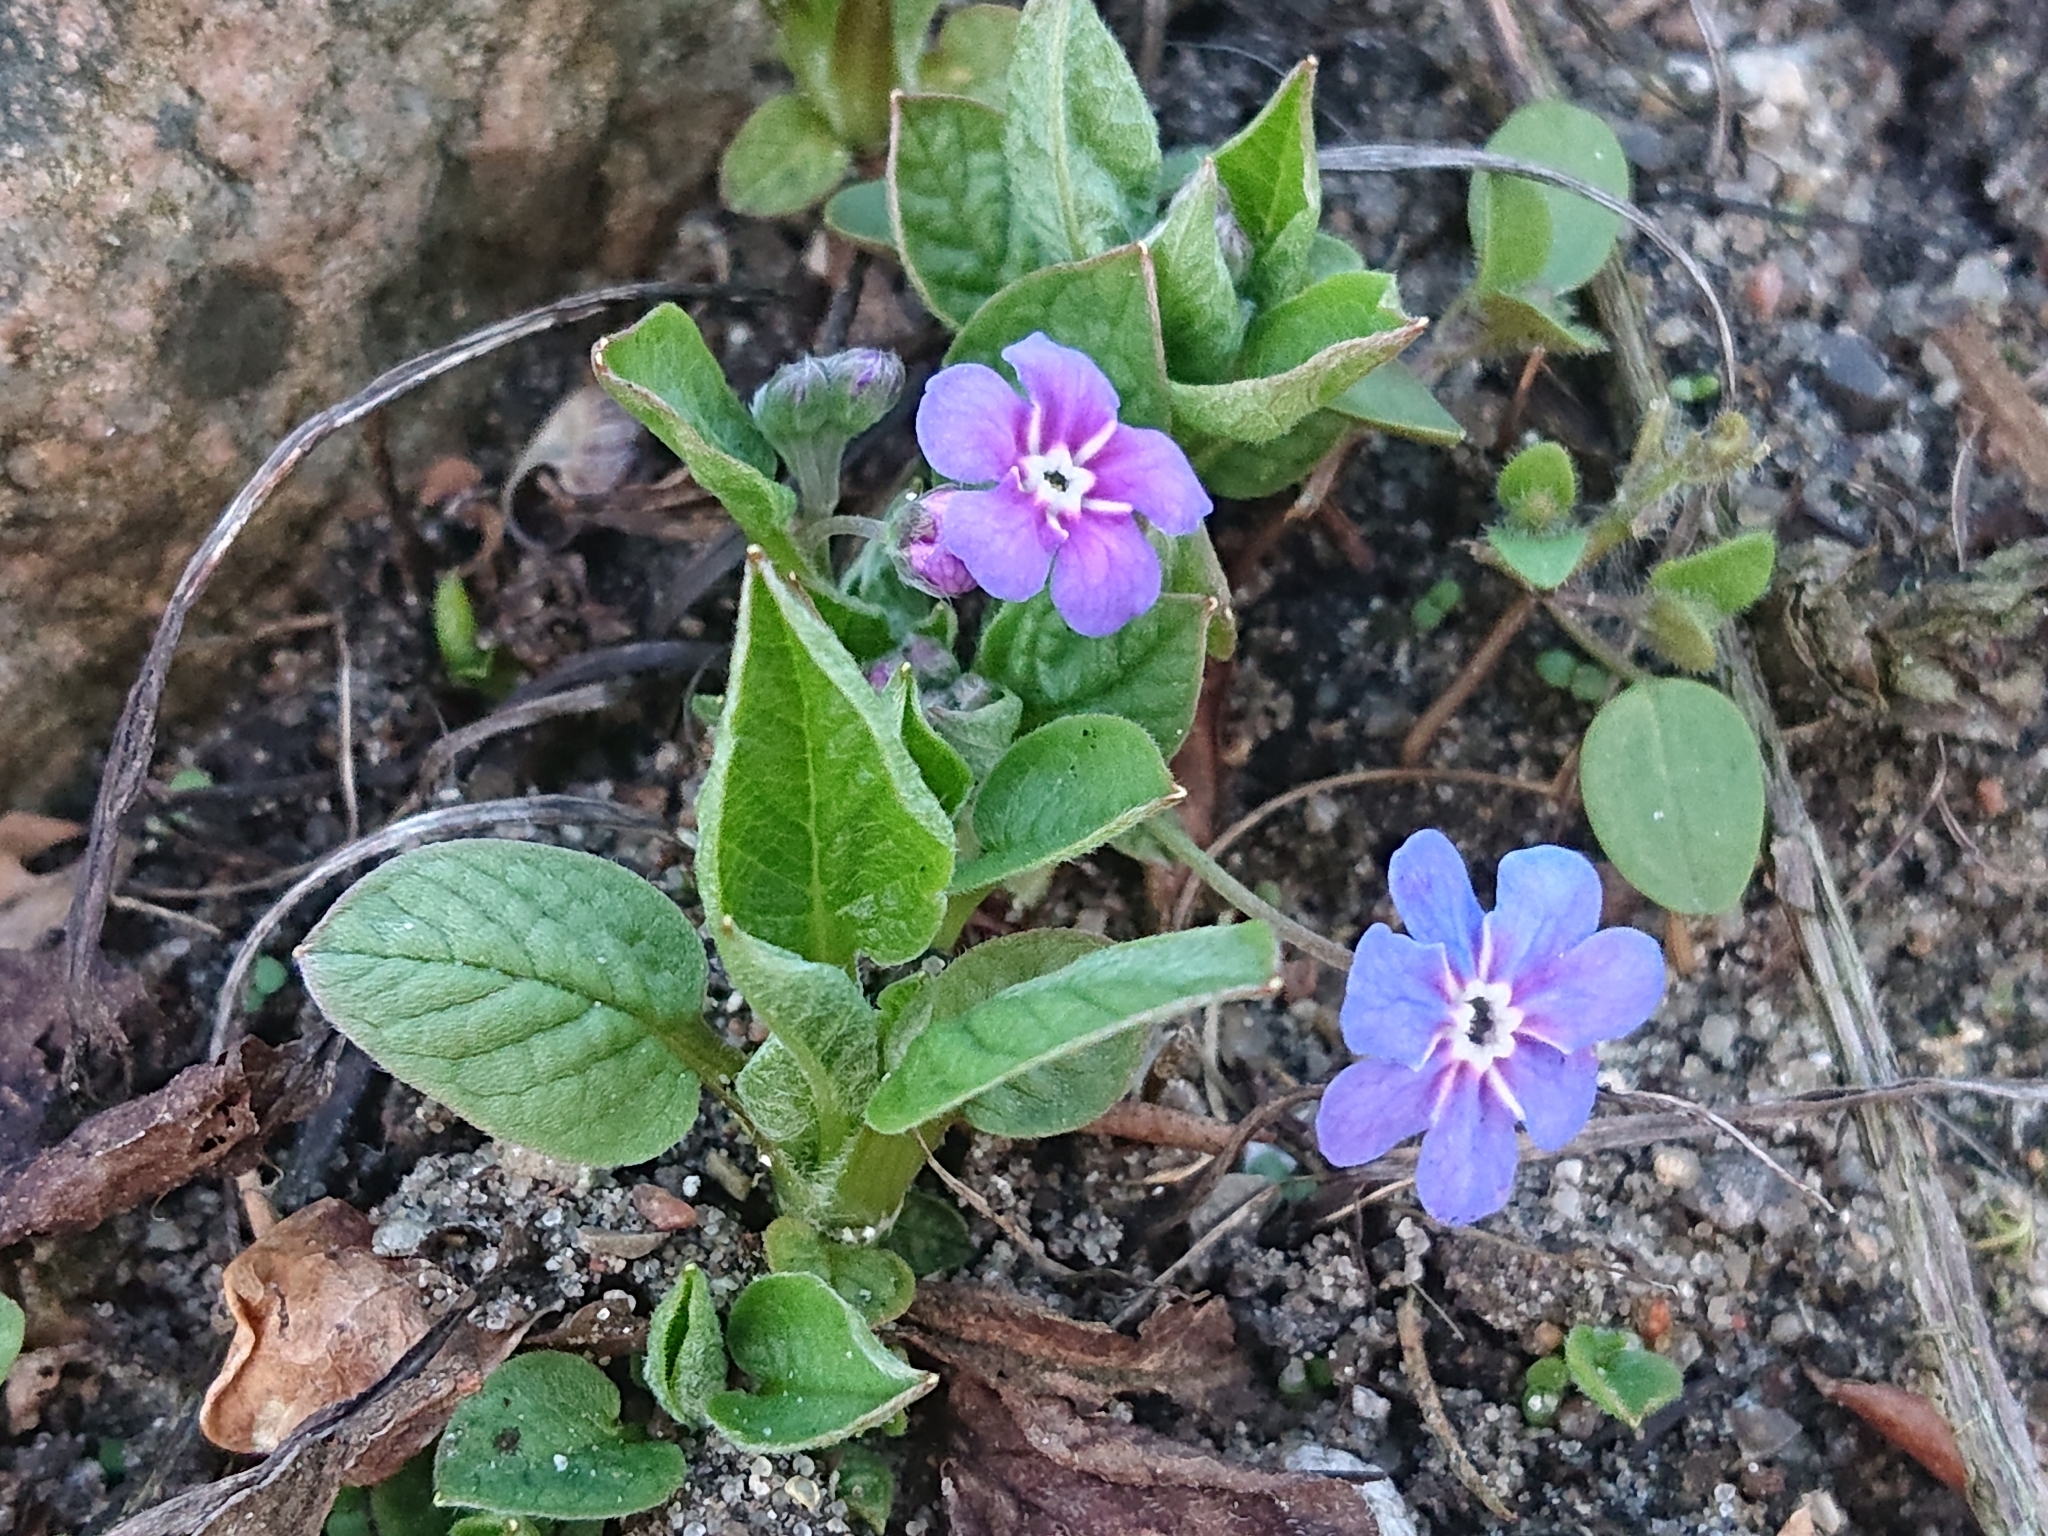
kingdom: Plantae
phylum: Tracheophyta
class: Magnoliopsida
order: Boraginales
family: Boraginaceae
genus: Omphalodes
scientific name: Omphalodes verna
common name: Blue-eyed-mary
